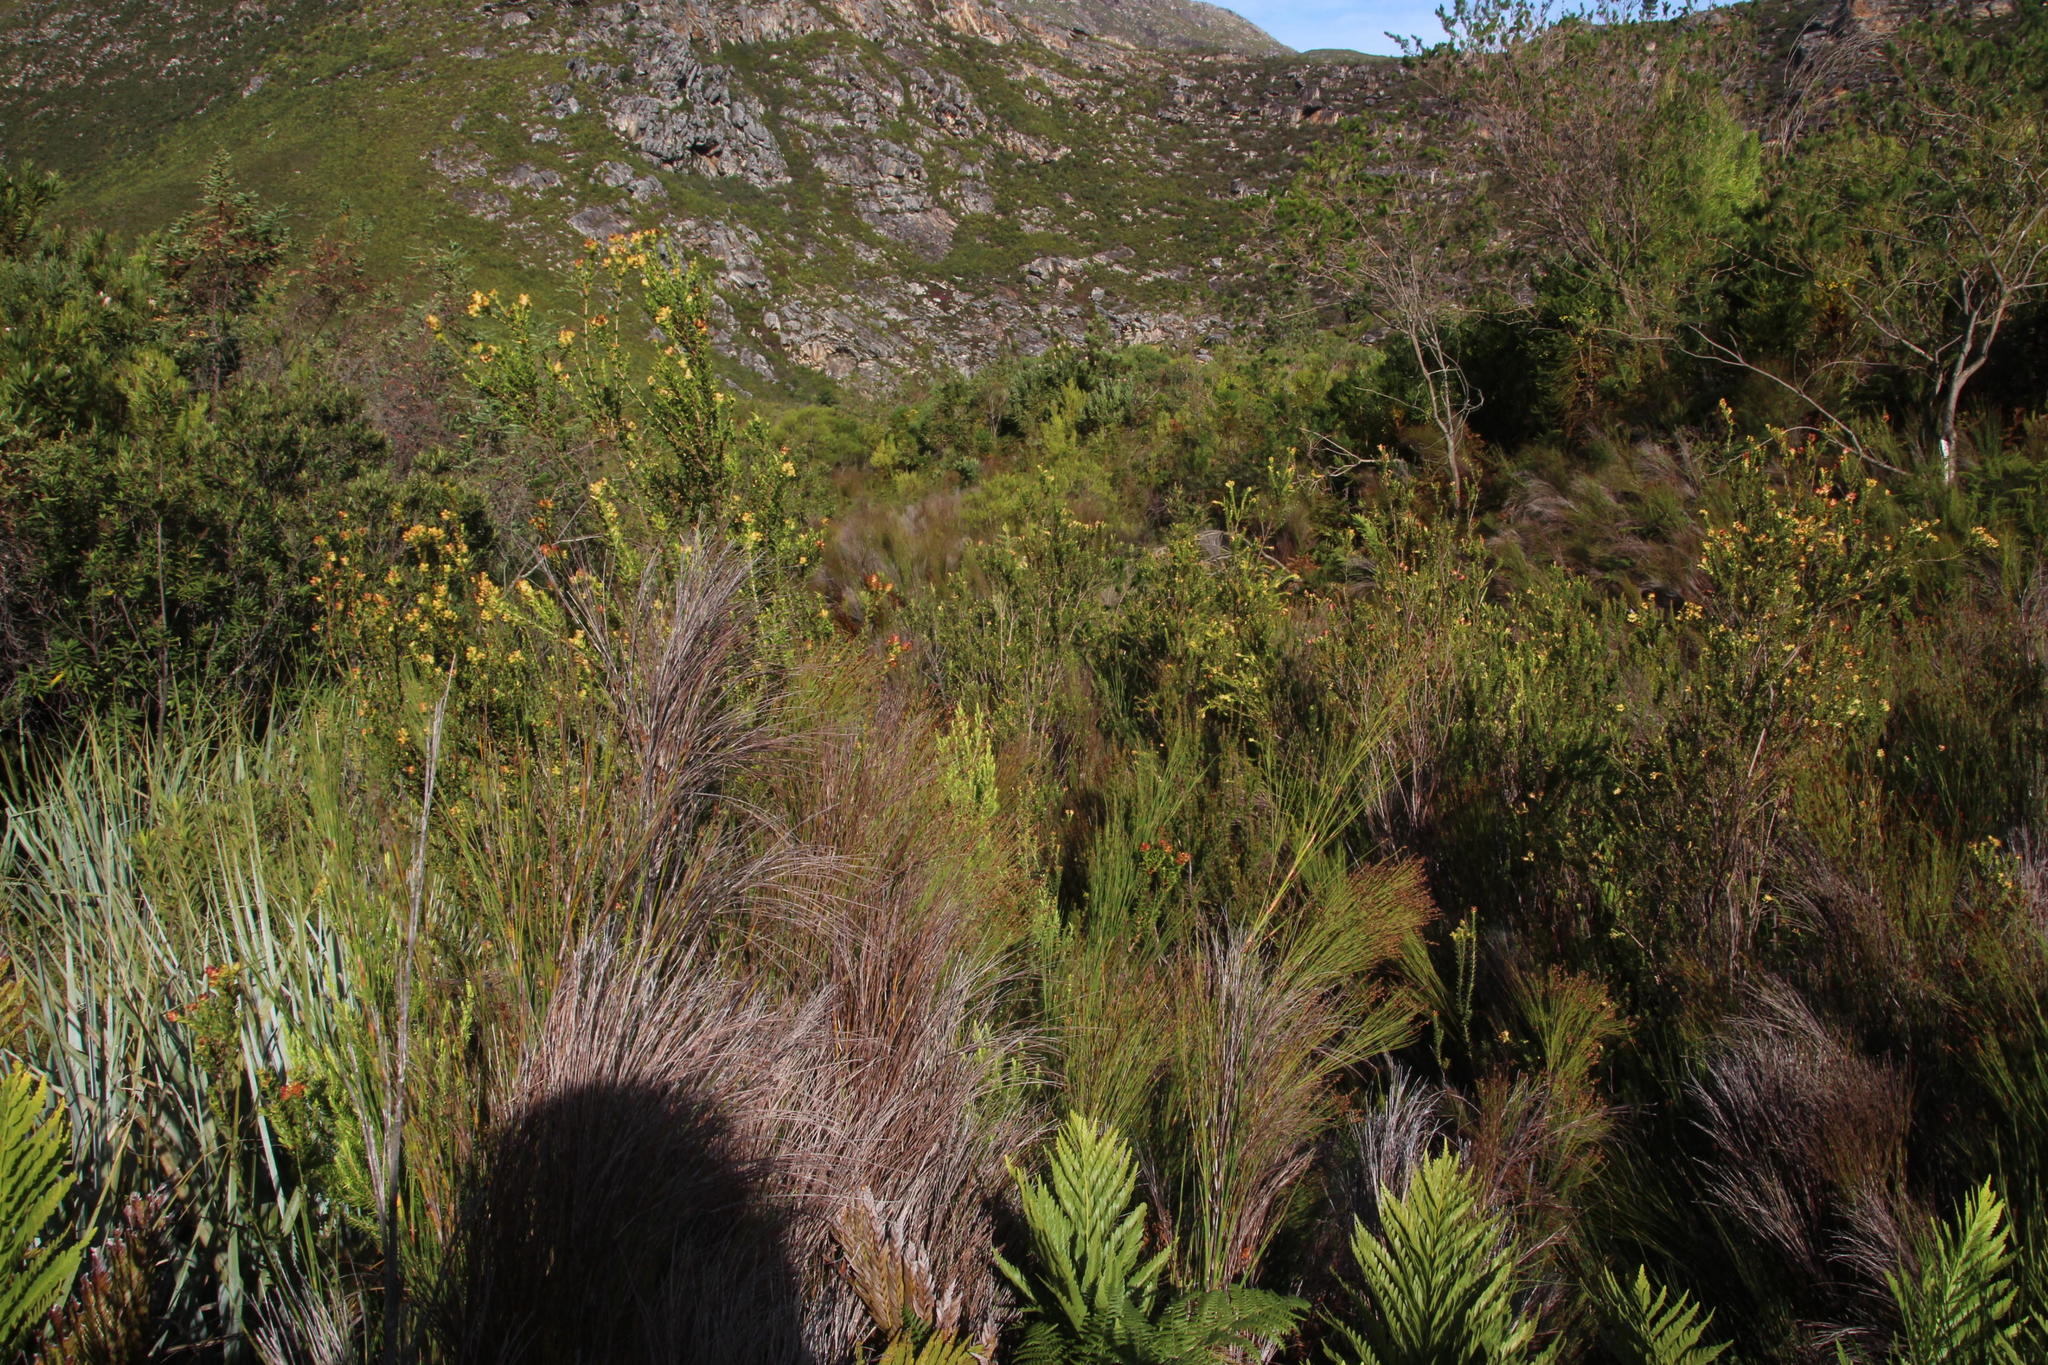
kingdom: Plantae
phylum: Tracheophyta
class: Magnoliopsida
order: Myrtales
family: Penaeaceae
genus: Penaea
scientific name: Penaea cneorum
